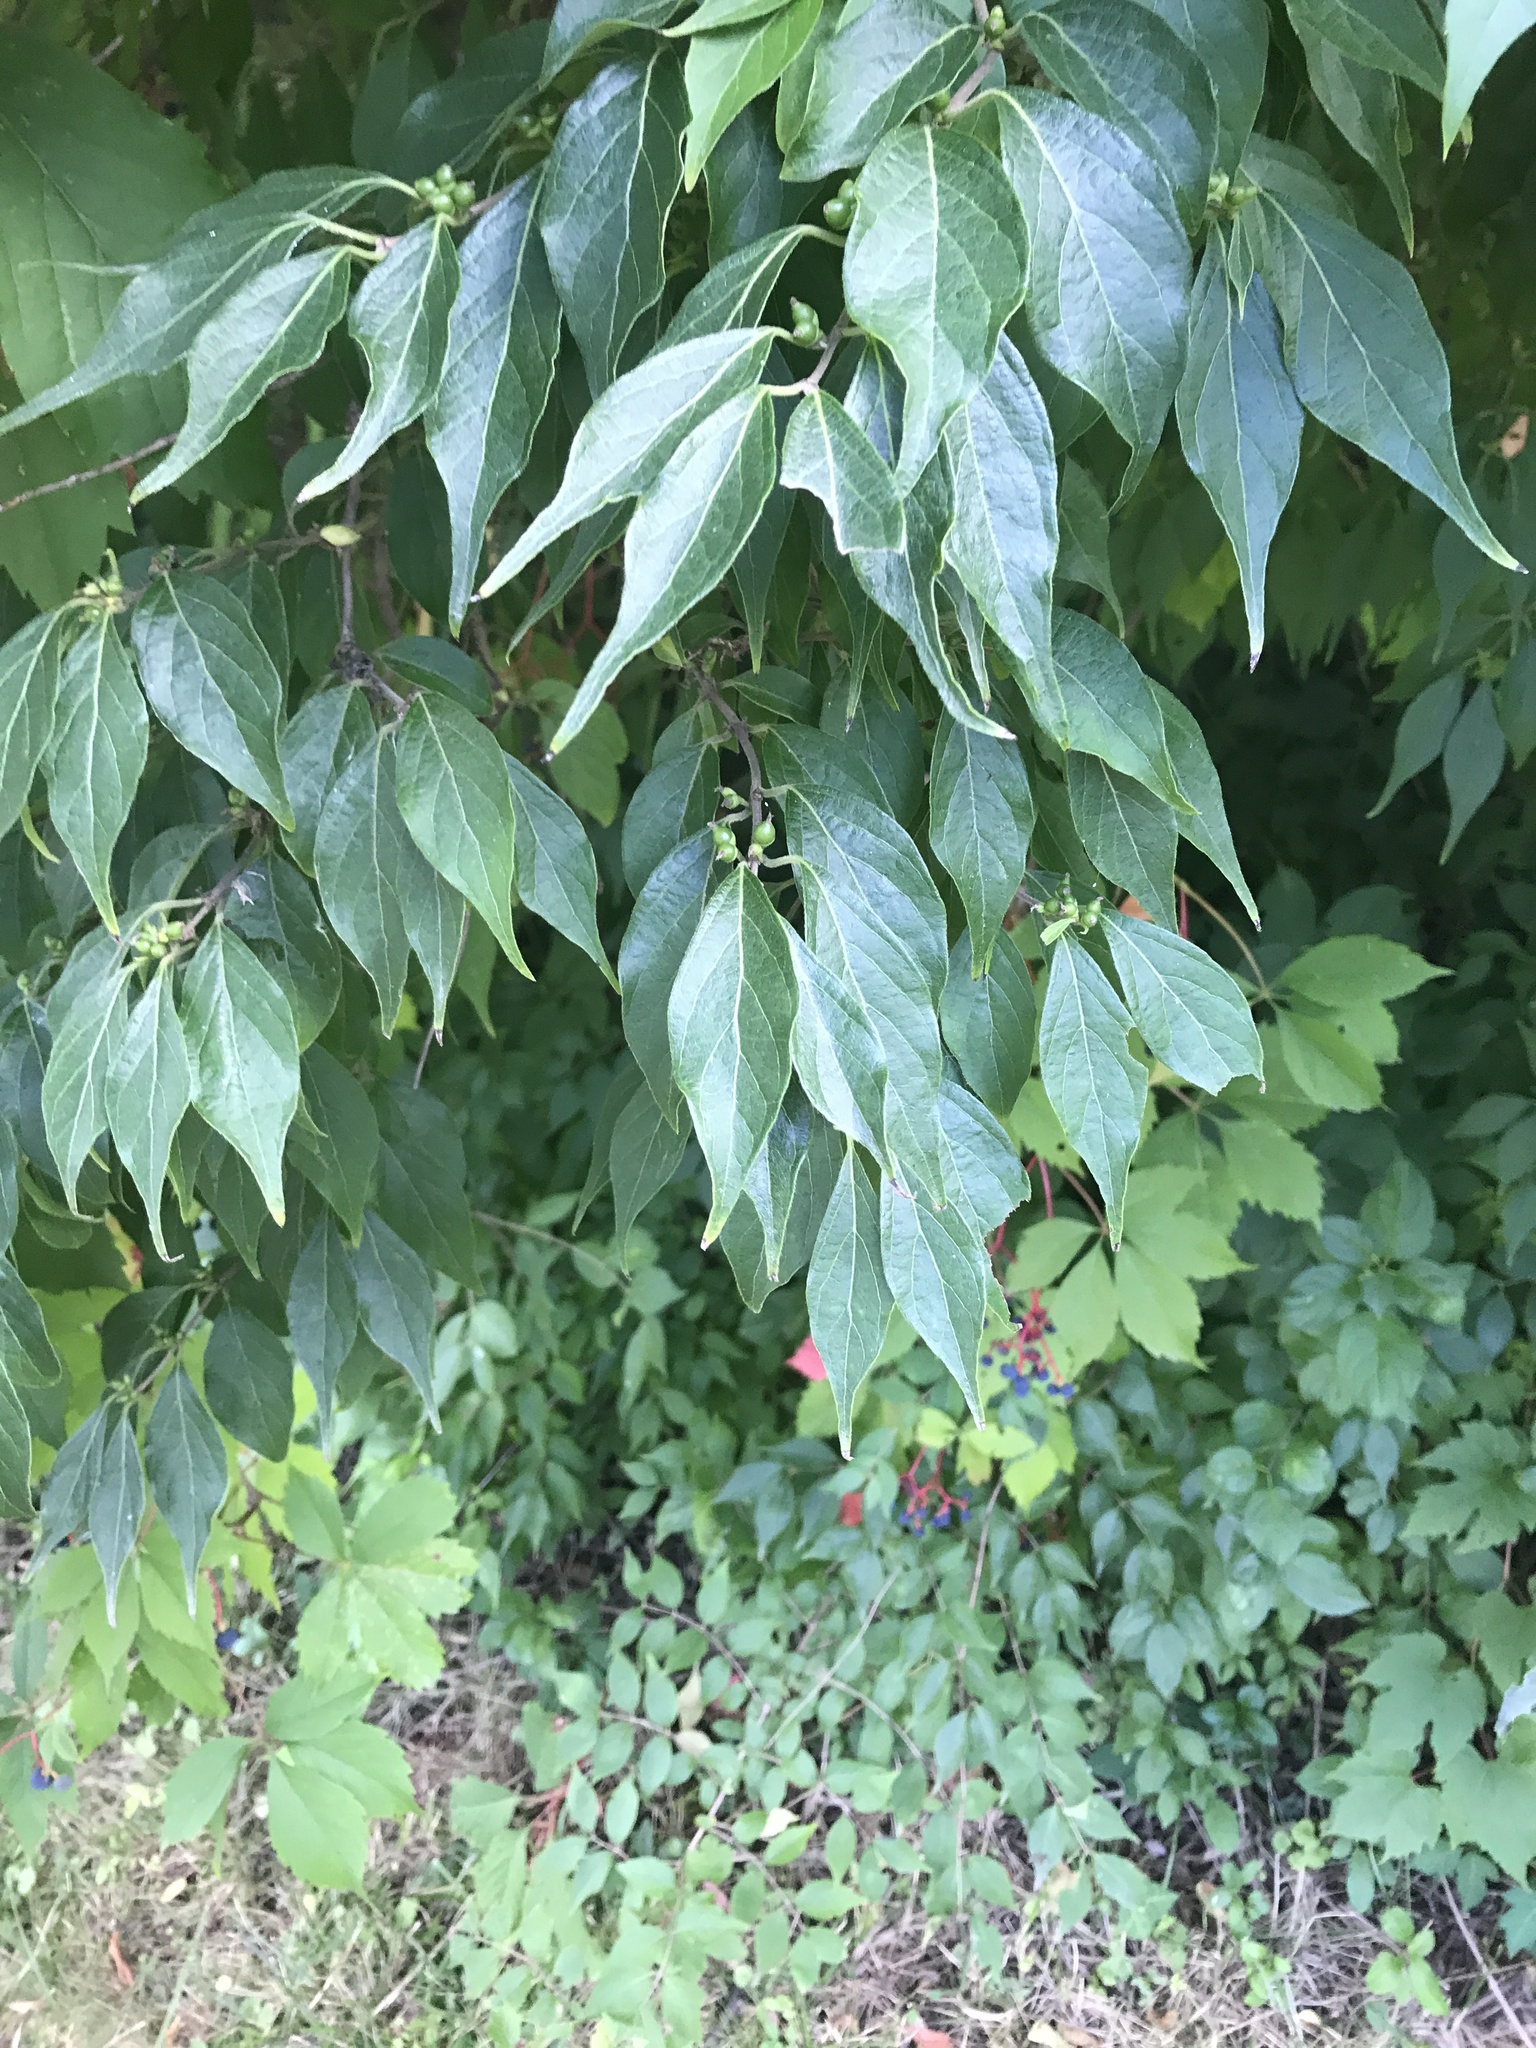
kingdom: Plantae
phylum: Tracheophyta
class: Magnoliopsida
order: Dipsacales
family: Caprifoliaceae
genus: Lonicera
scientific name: Lonicera maackii
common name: Amur honeysuckle
